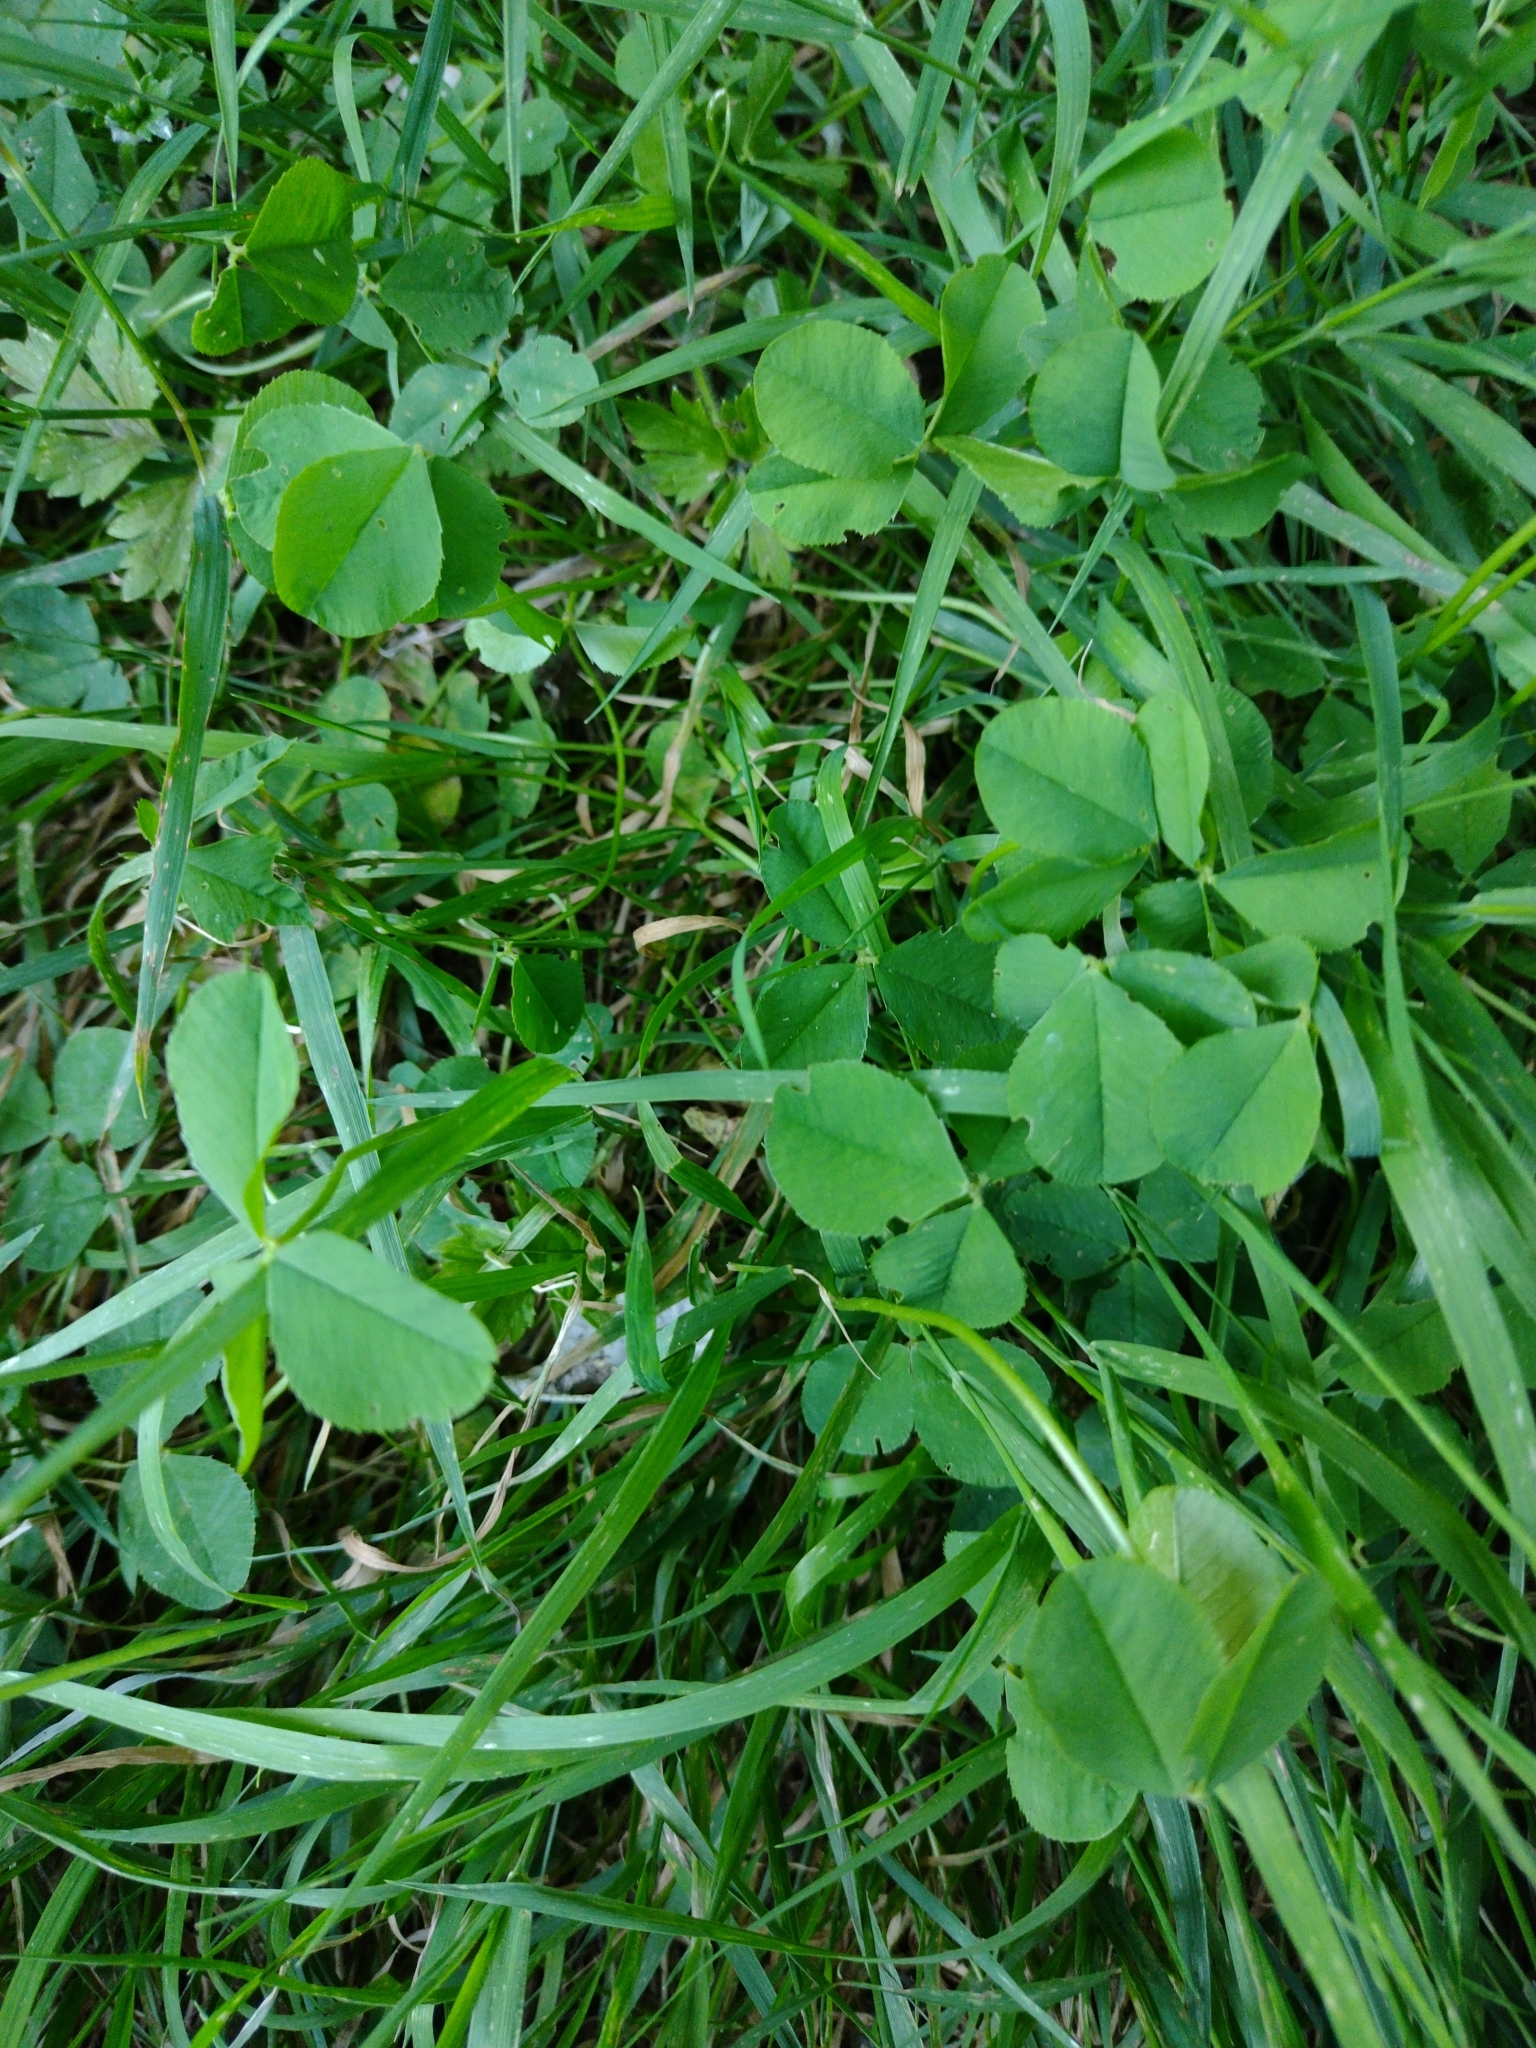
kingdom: Plantae
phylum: Tracheophyta
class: Magnoliopsida
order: Fabales
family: Fabaceae
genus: Trifolium
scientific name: Trifolium repens
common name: White clover
